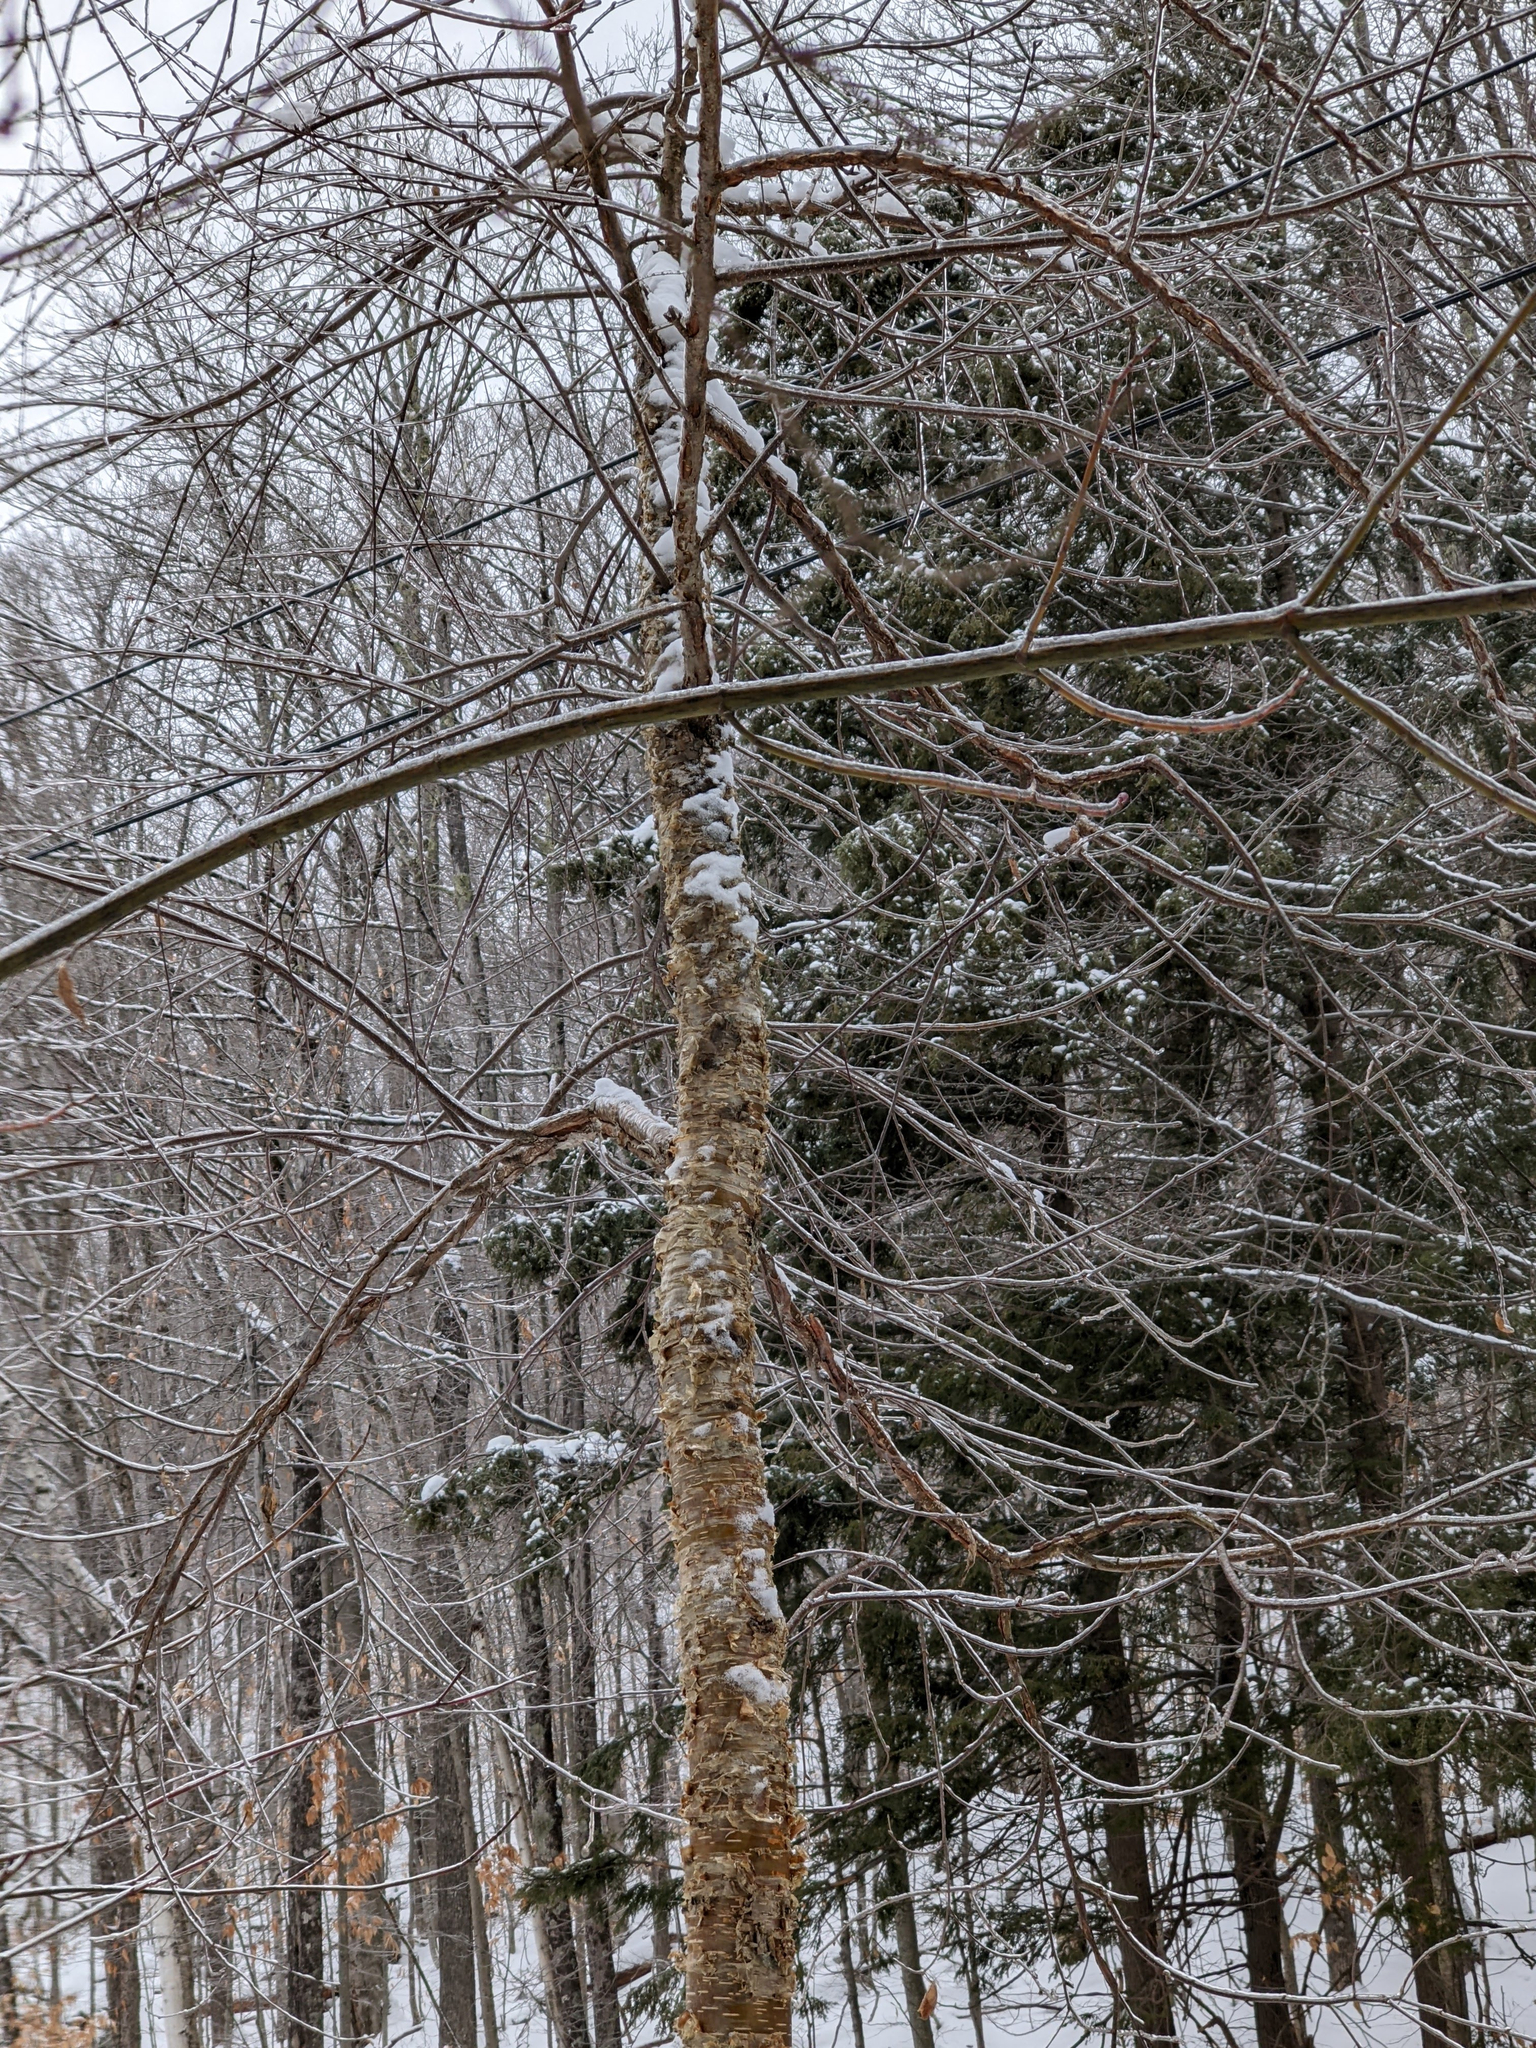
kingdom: Plantae
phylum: Tracheophyta
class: Magnoliopsida
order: Fagales
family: Betulaceae
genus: Betula
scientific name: Betula alleghaniensis
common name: Yellow birch
